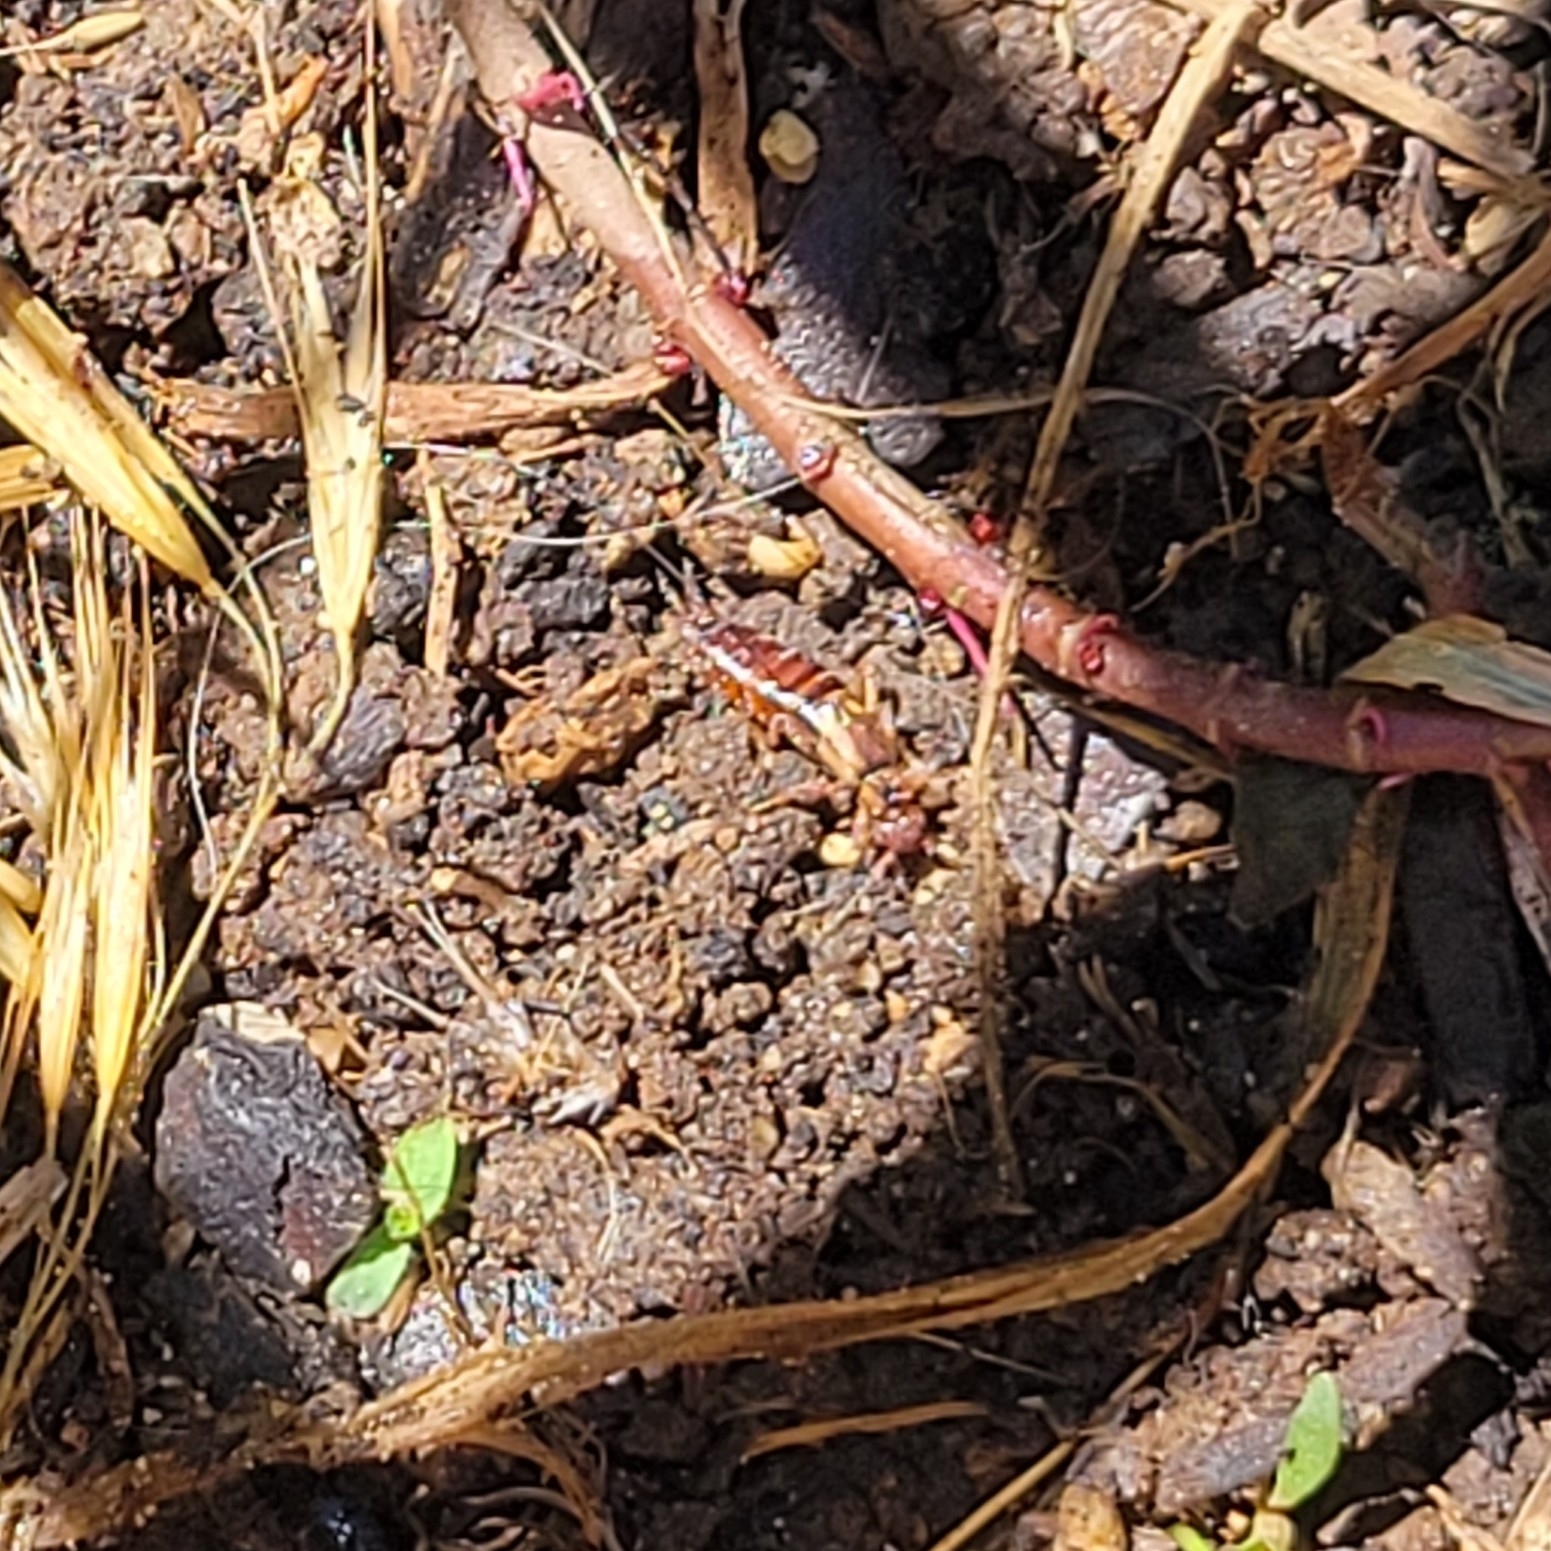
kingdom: Animalia
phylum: Arthropoda
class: Insecta
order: Dermaptera
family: Forficulidae
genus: Forficula
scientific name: Forficula
